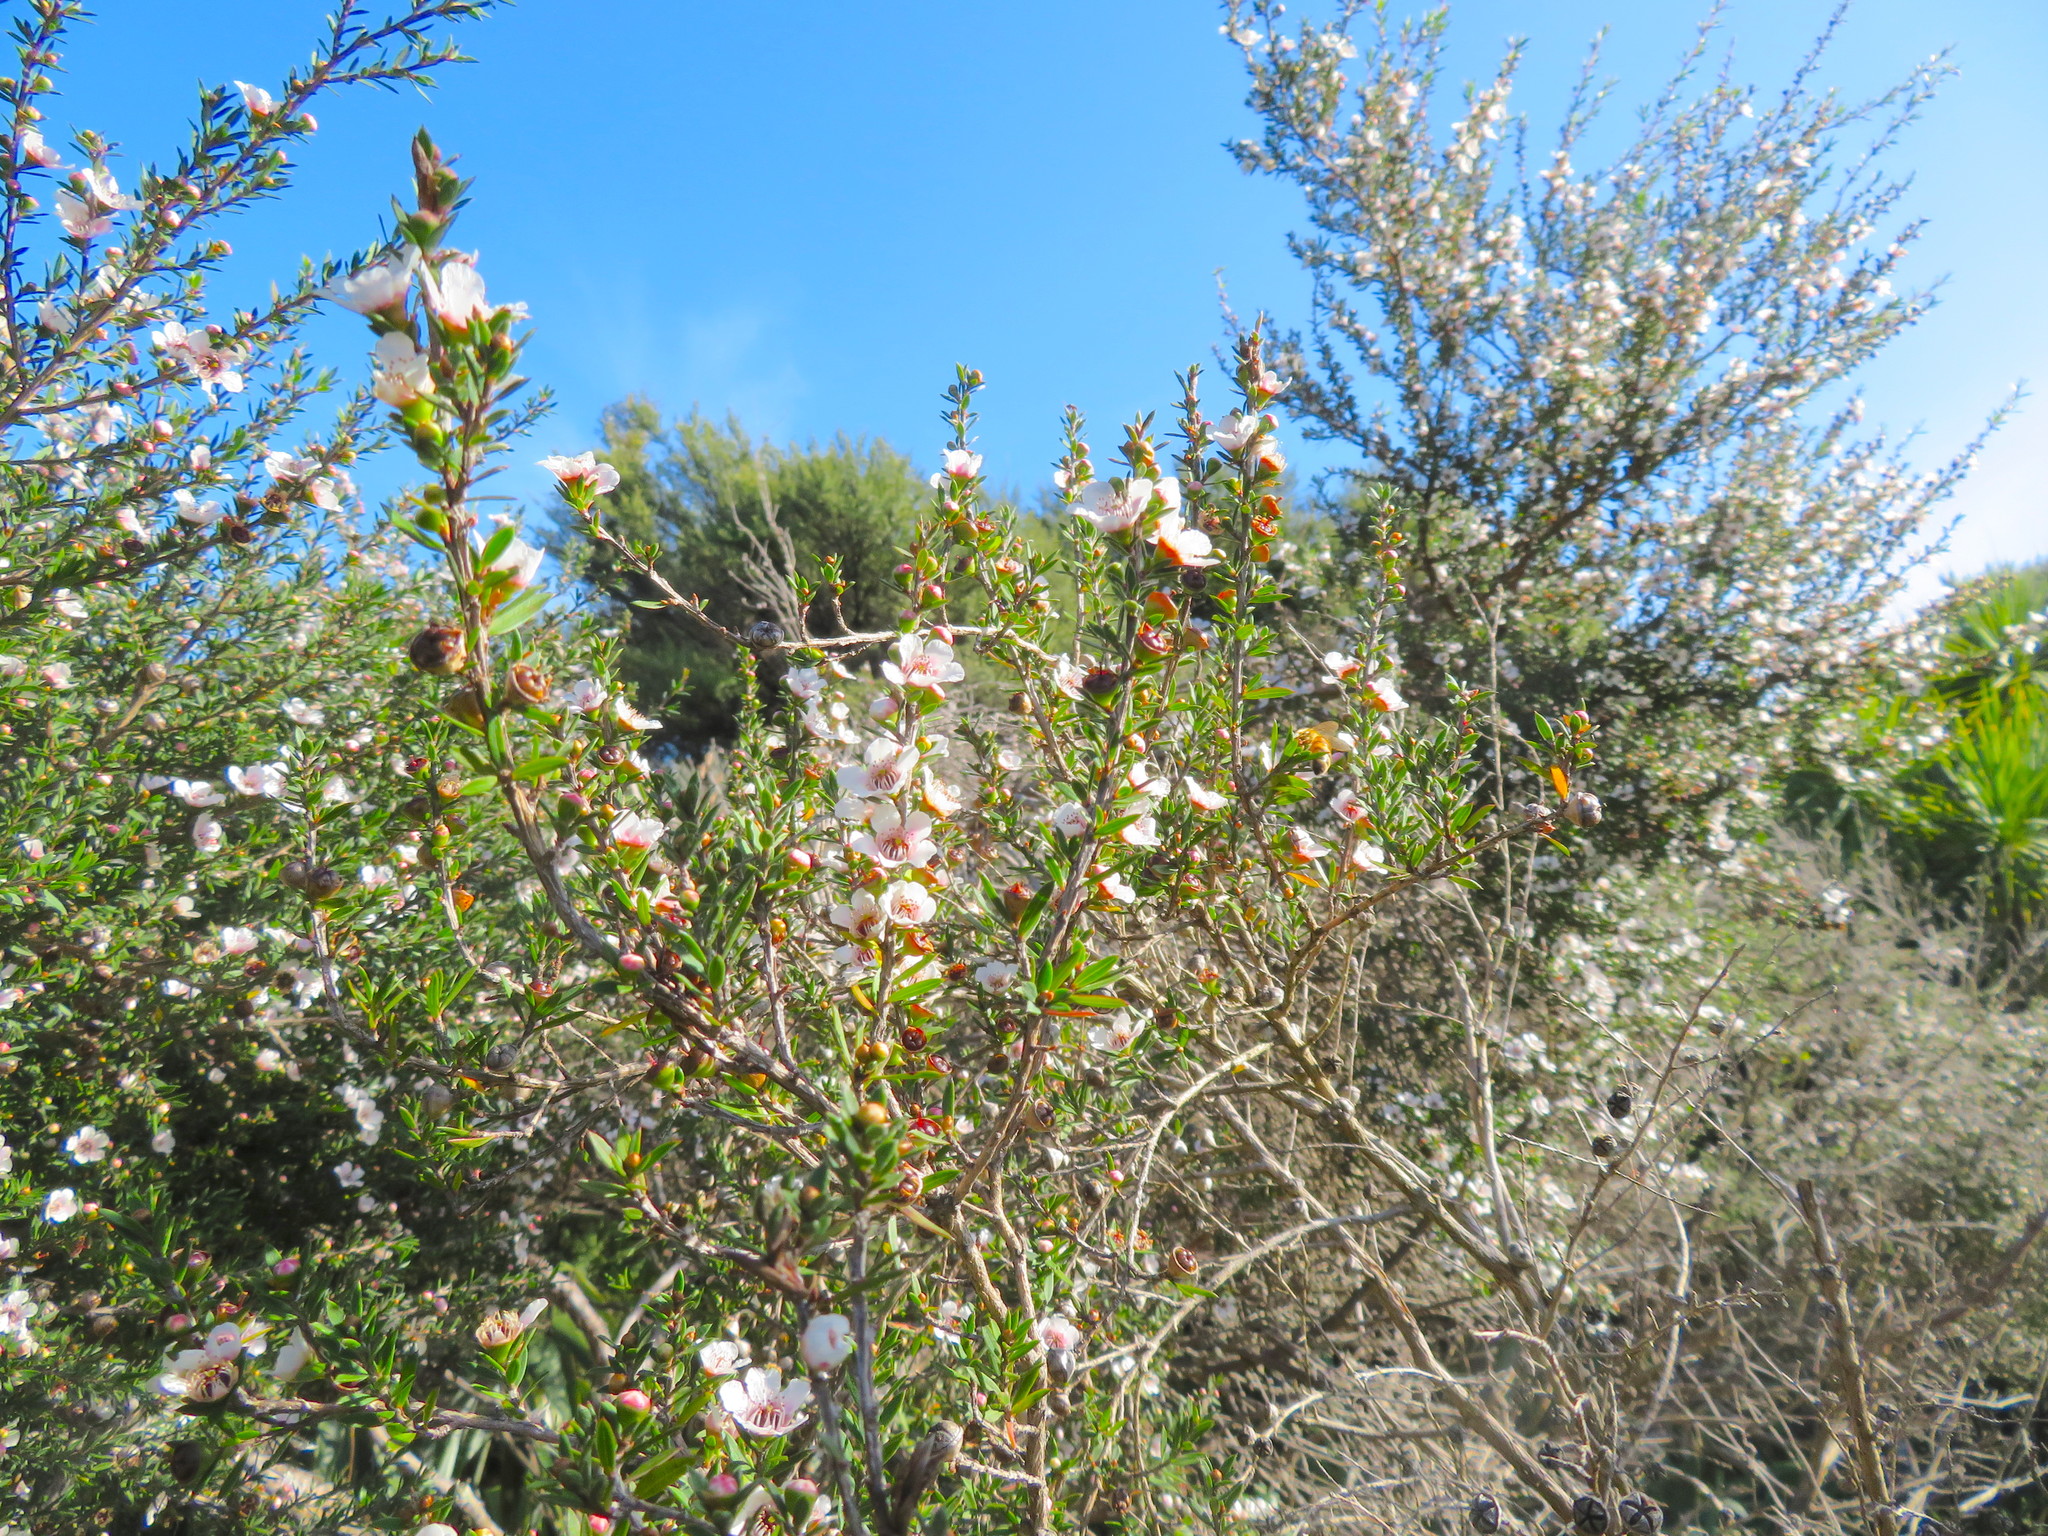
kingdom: Plantae
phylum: Tracheophyta
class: Magnoliopsida
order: Myrtales
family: Myrtaceae
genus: Leptospermum
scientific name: Leptospermum scoparium
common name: Broom tea-tree
